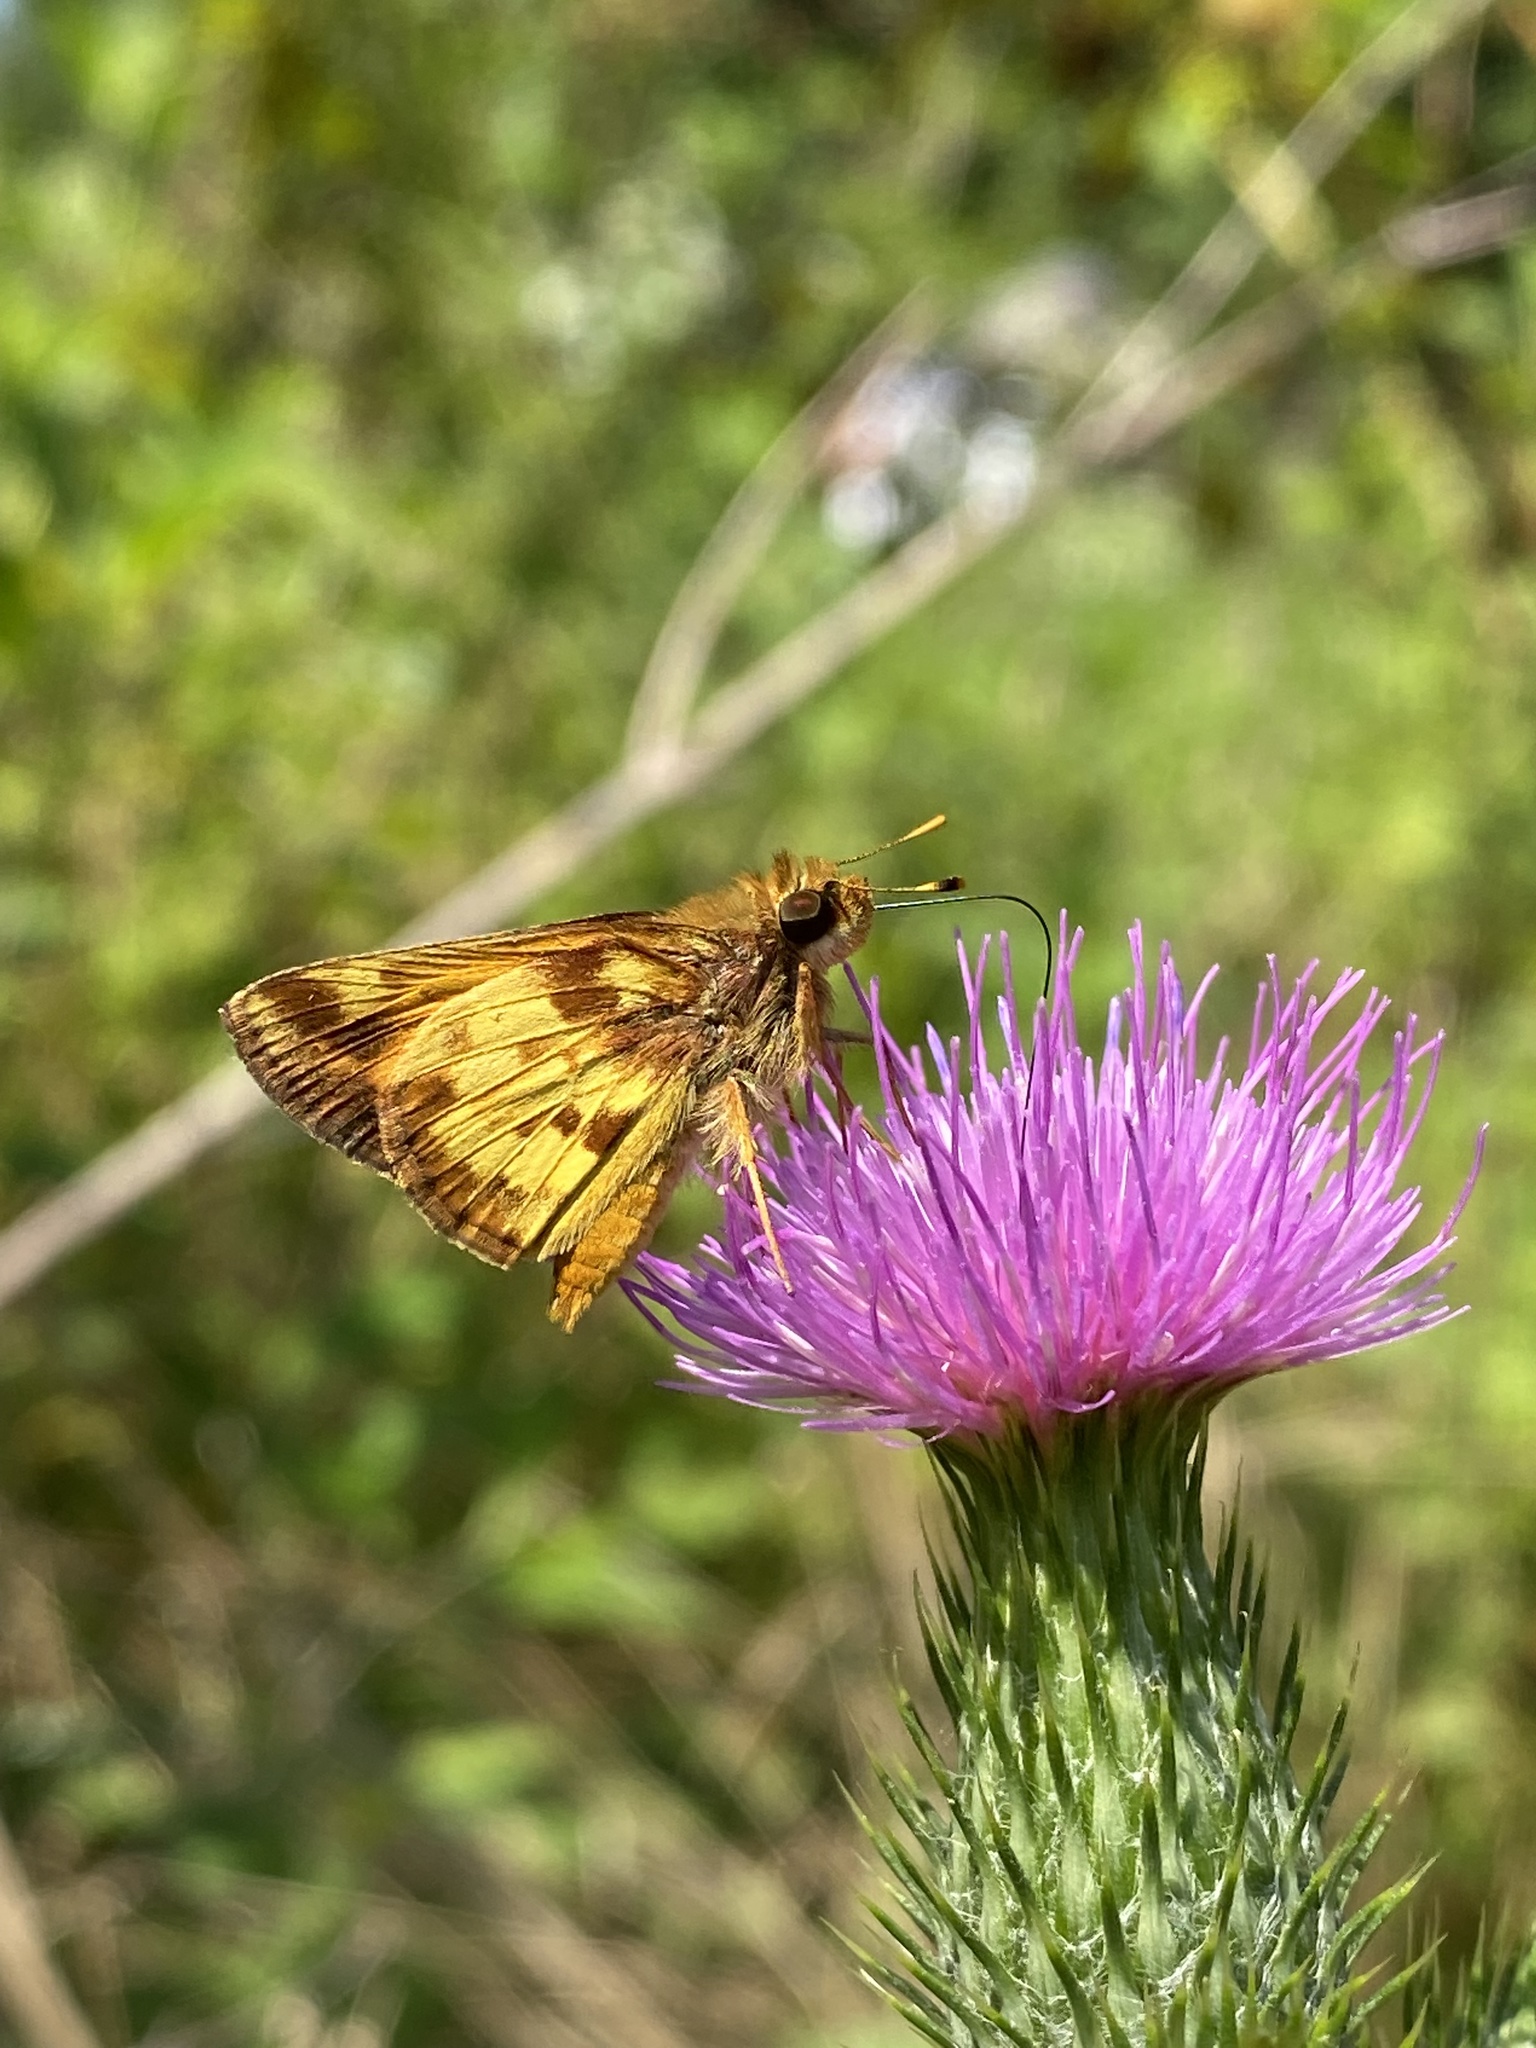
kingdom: Animalia
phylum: Arthropoda
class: Insecta
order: Lepidoptera
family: Hesperiidae
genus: Lon
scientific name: Lon zabulon
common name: Zabulon skipper
